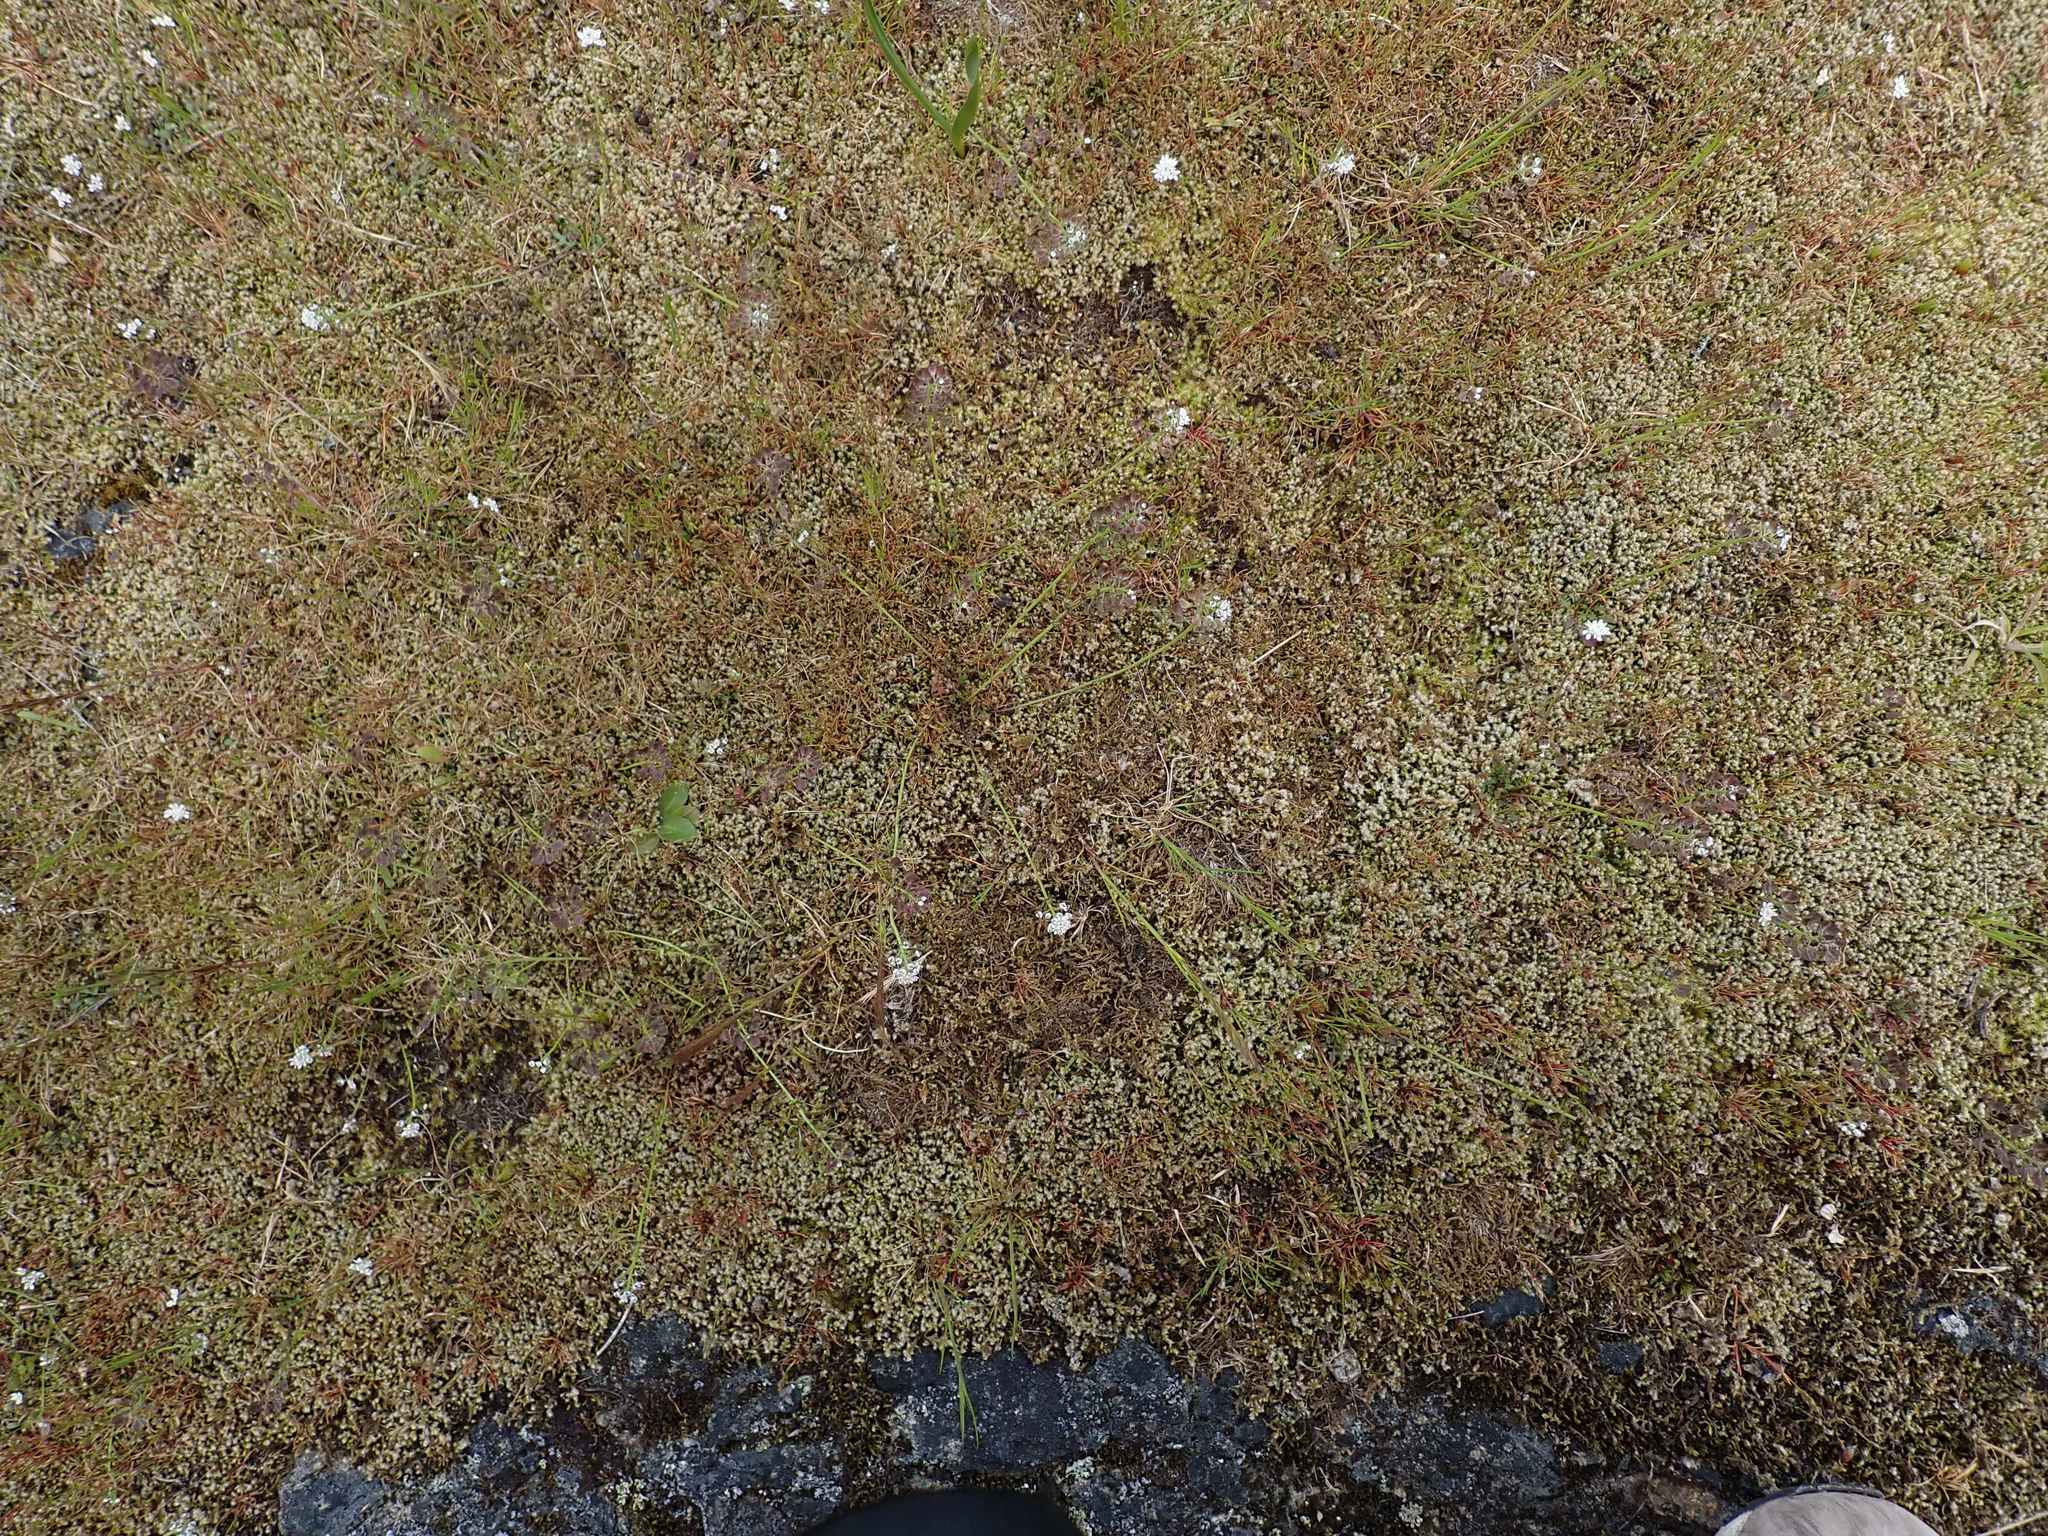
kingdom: Plantae
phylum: Tracheophyta
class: Magnoliopsida
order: Brassicales
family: Brassicaceae
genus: Teesdalia
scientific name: Teesdalia nudicaulis
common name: Shepherd's cress
